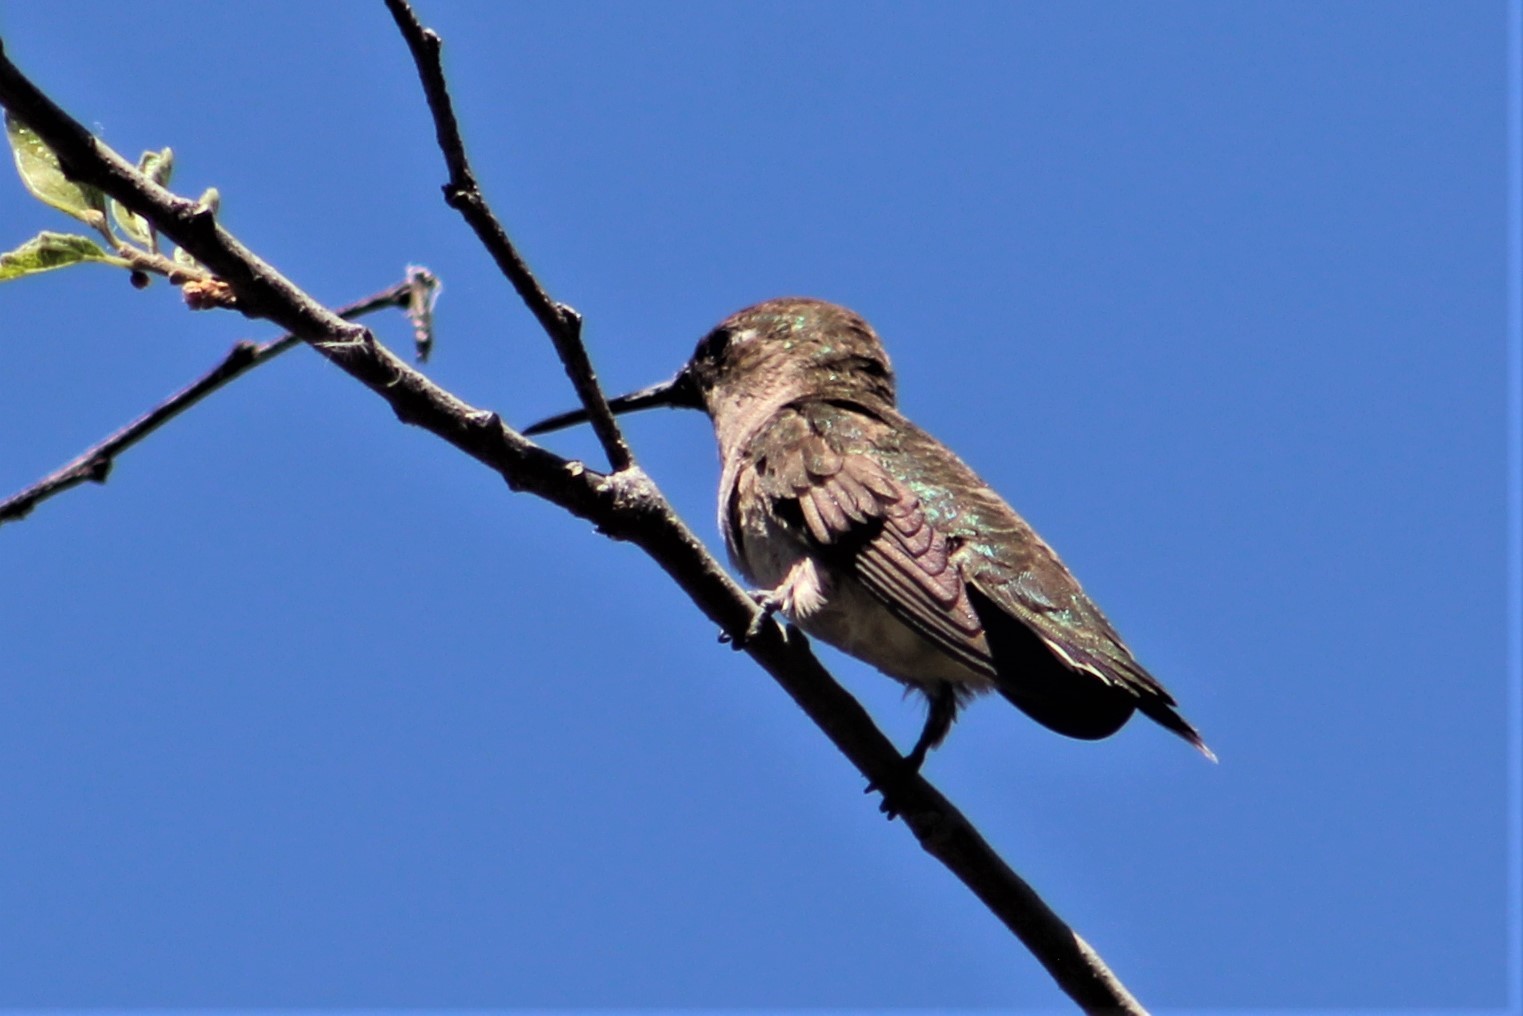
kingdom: Animalia
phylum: Chordata
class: Aves
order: Apodiformes
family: Trochilidae
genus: Archilochus
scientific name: Archilochus alexandri
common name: Black-chinned hummingbird
